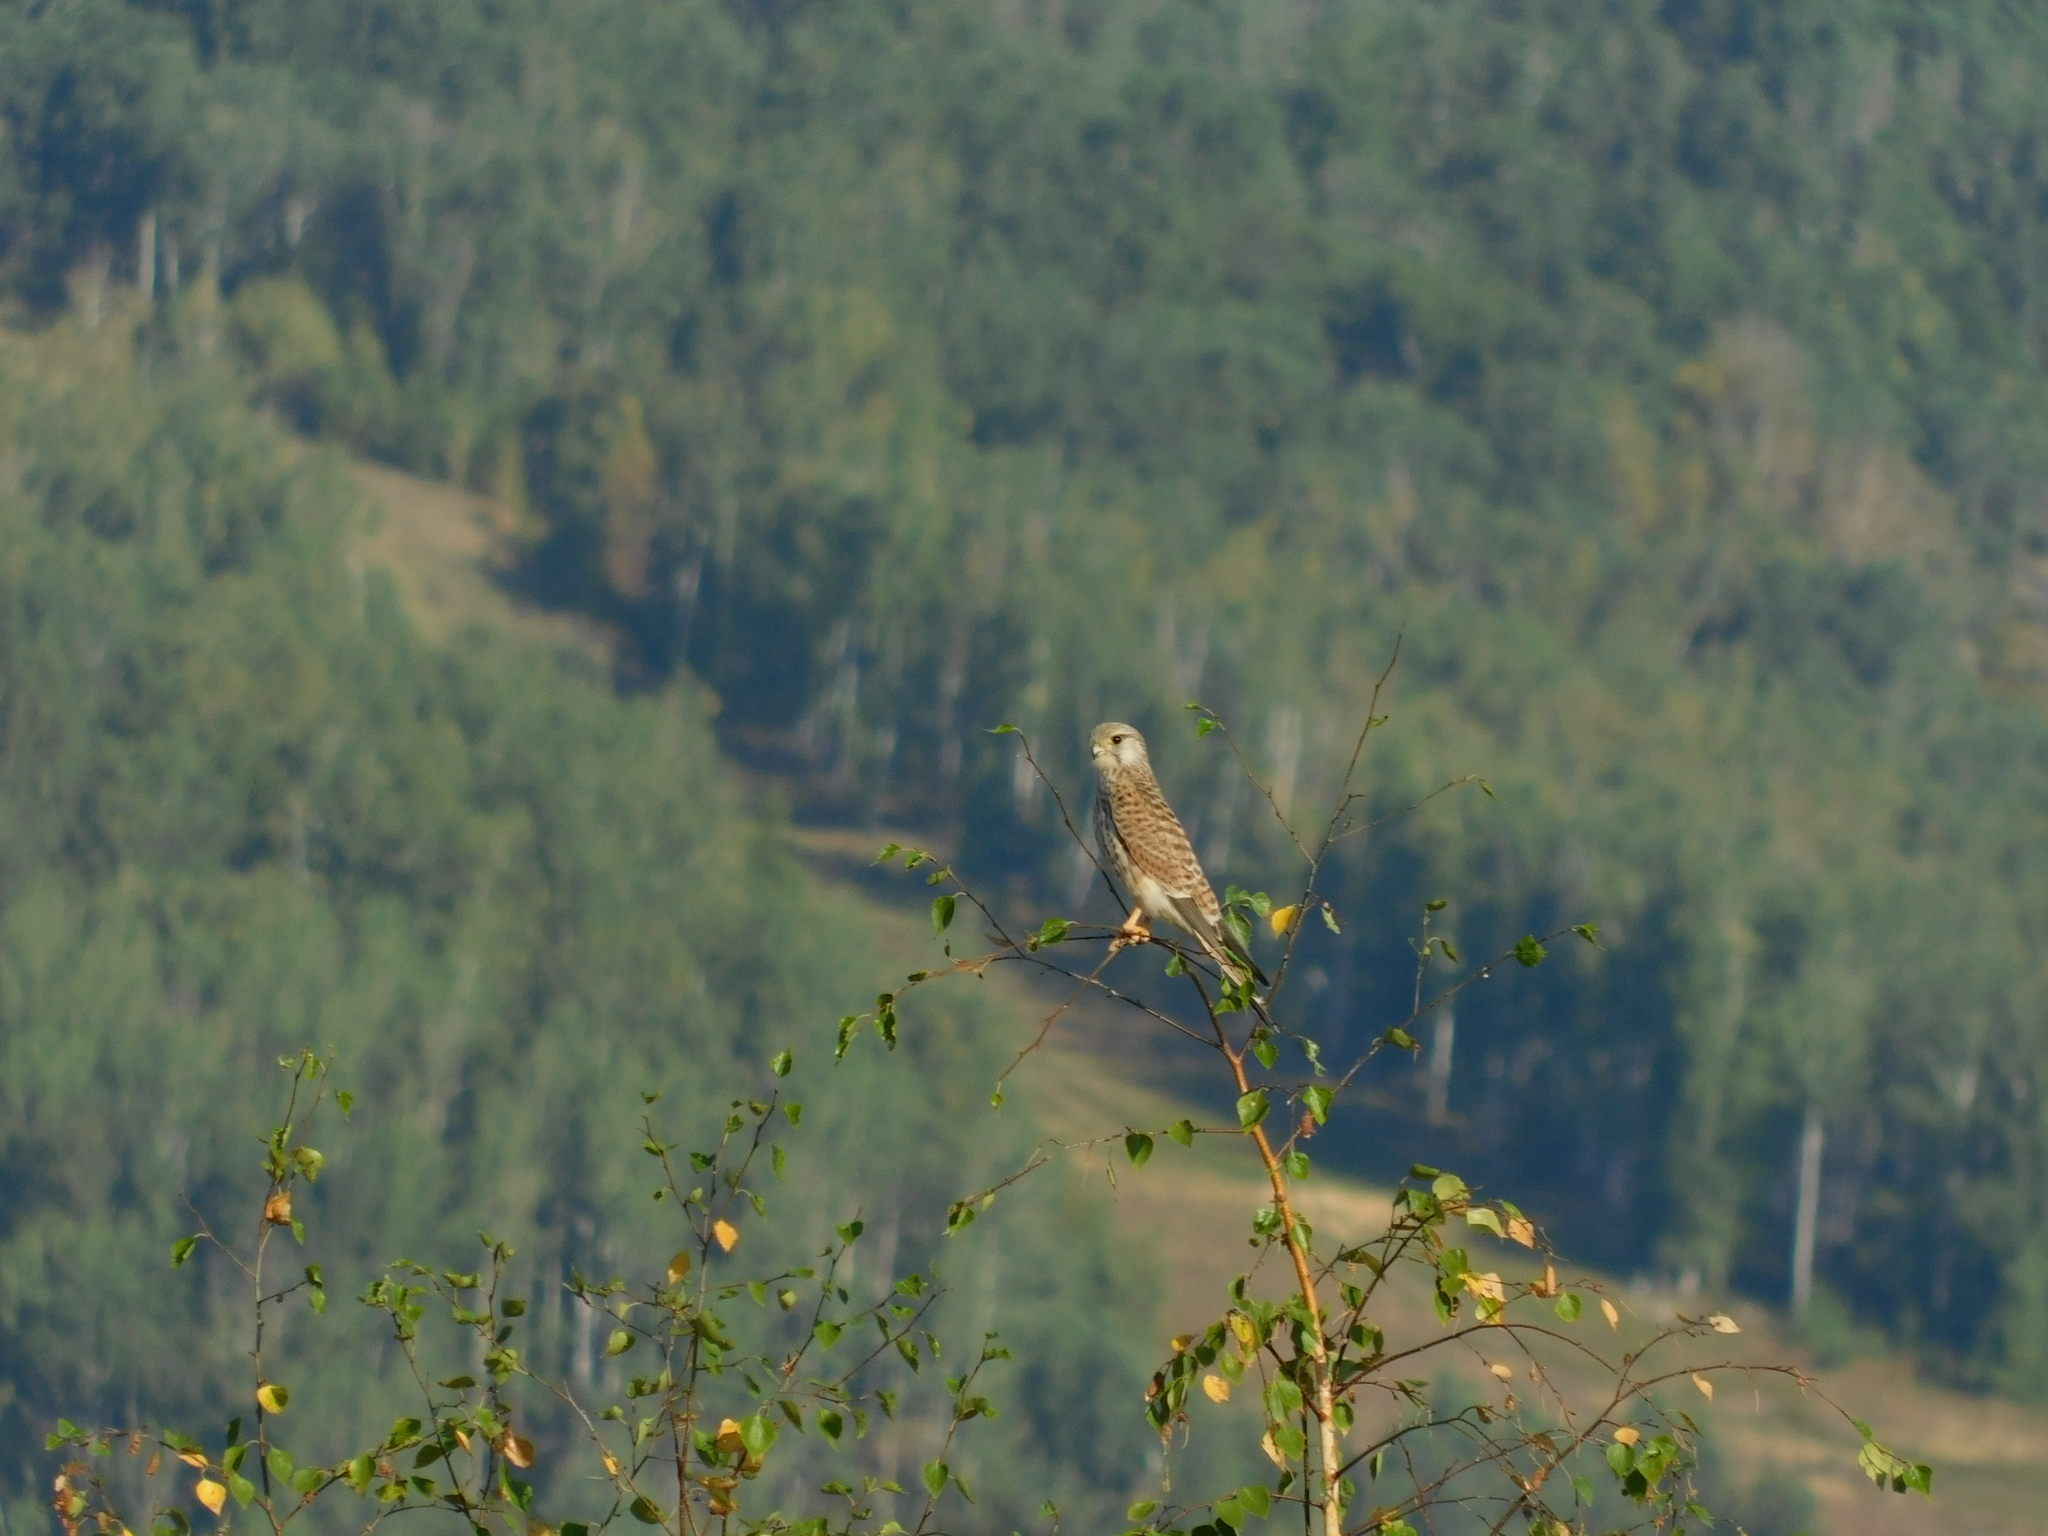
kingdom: Animalia
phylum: Chordata
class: Aves
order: Falconiformes
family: Falconidae
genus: Falco
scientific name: Falco tinnunculus
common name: Common kestrel
